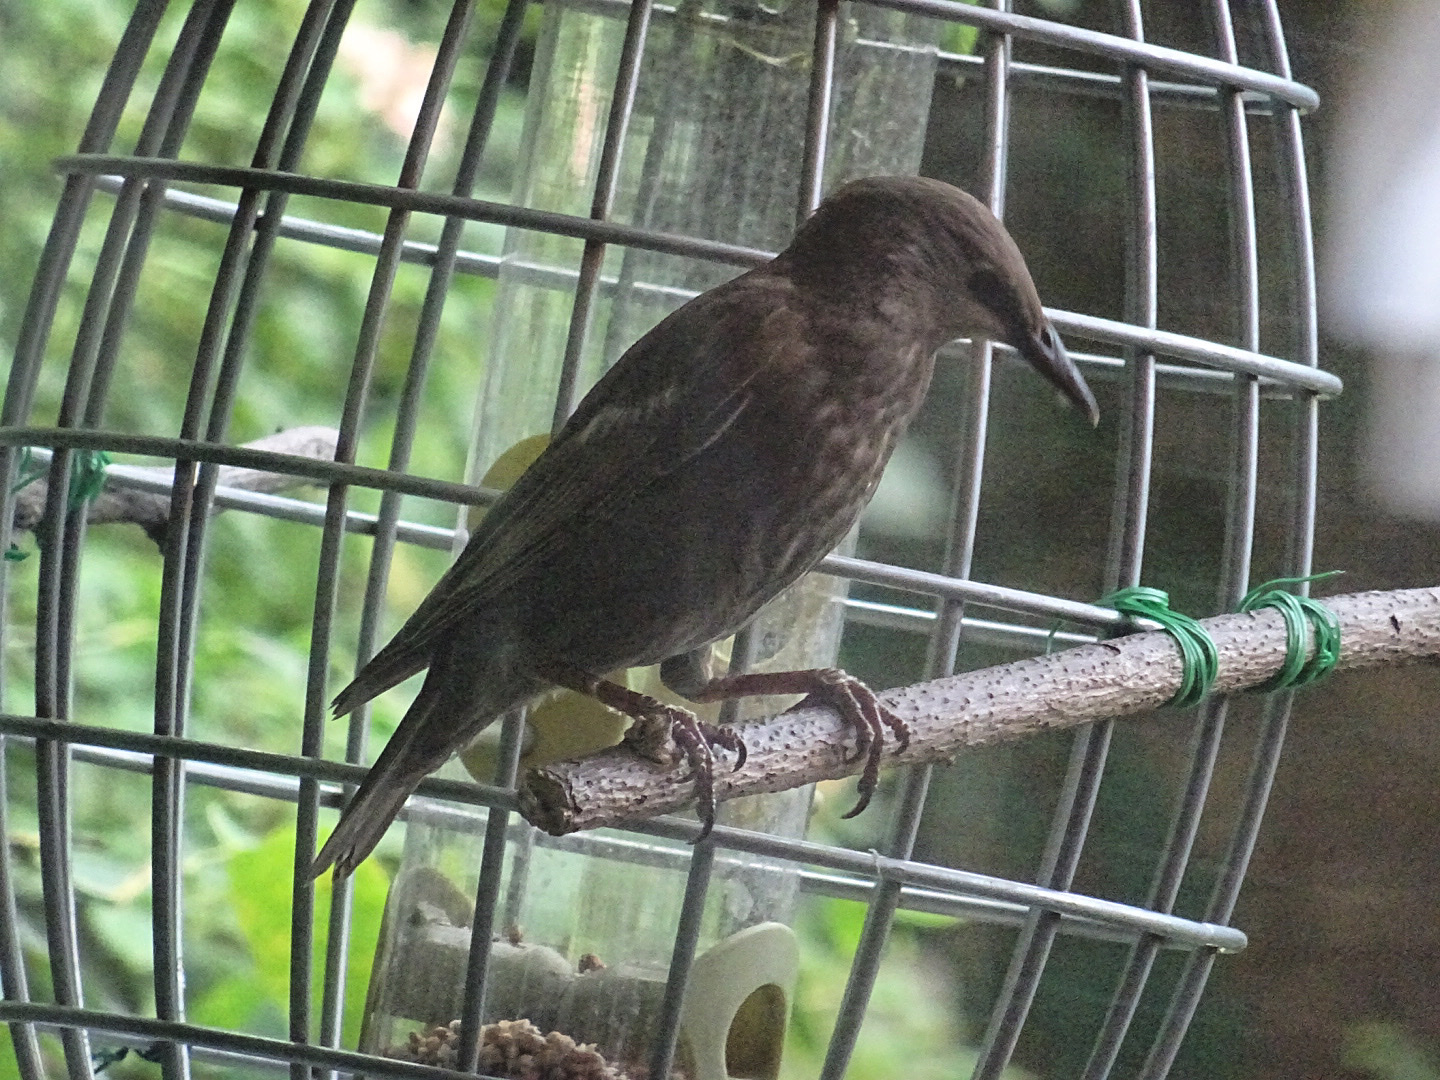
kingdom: Animalia
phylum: Chordata
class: Aves
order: Passeriformes
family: Sturnidae
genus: Sturnus
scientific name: Sturnus vulgaris
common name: Common starling
